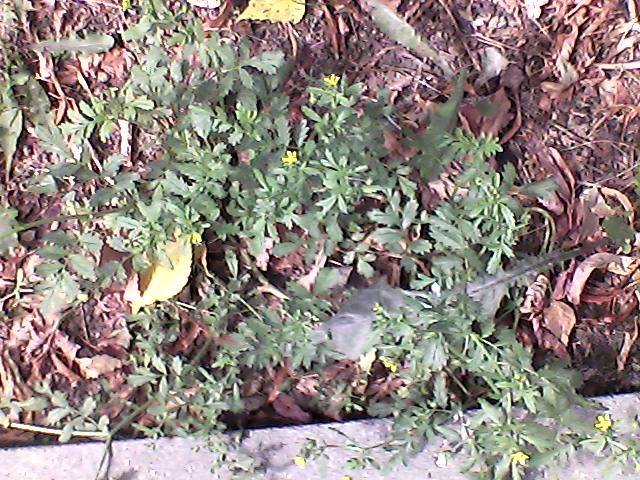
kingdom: Plantae
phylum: Tracheophyta
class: Magnoliopsida
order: Rosales
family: Rosaceae
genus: Potentilla
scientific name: Potentilla supina
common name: Prostrate cinquefoil
